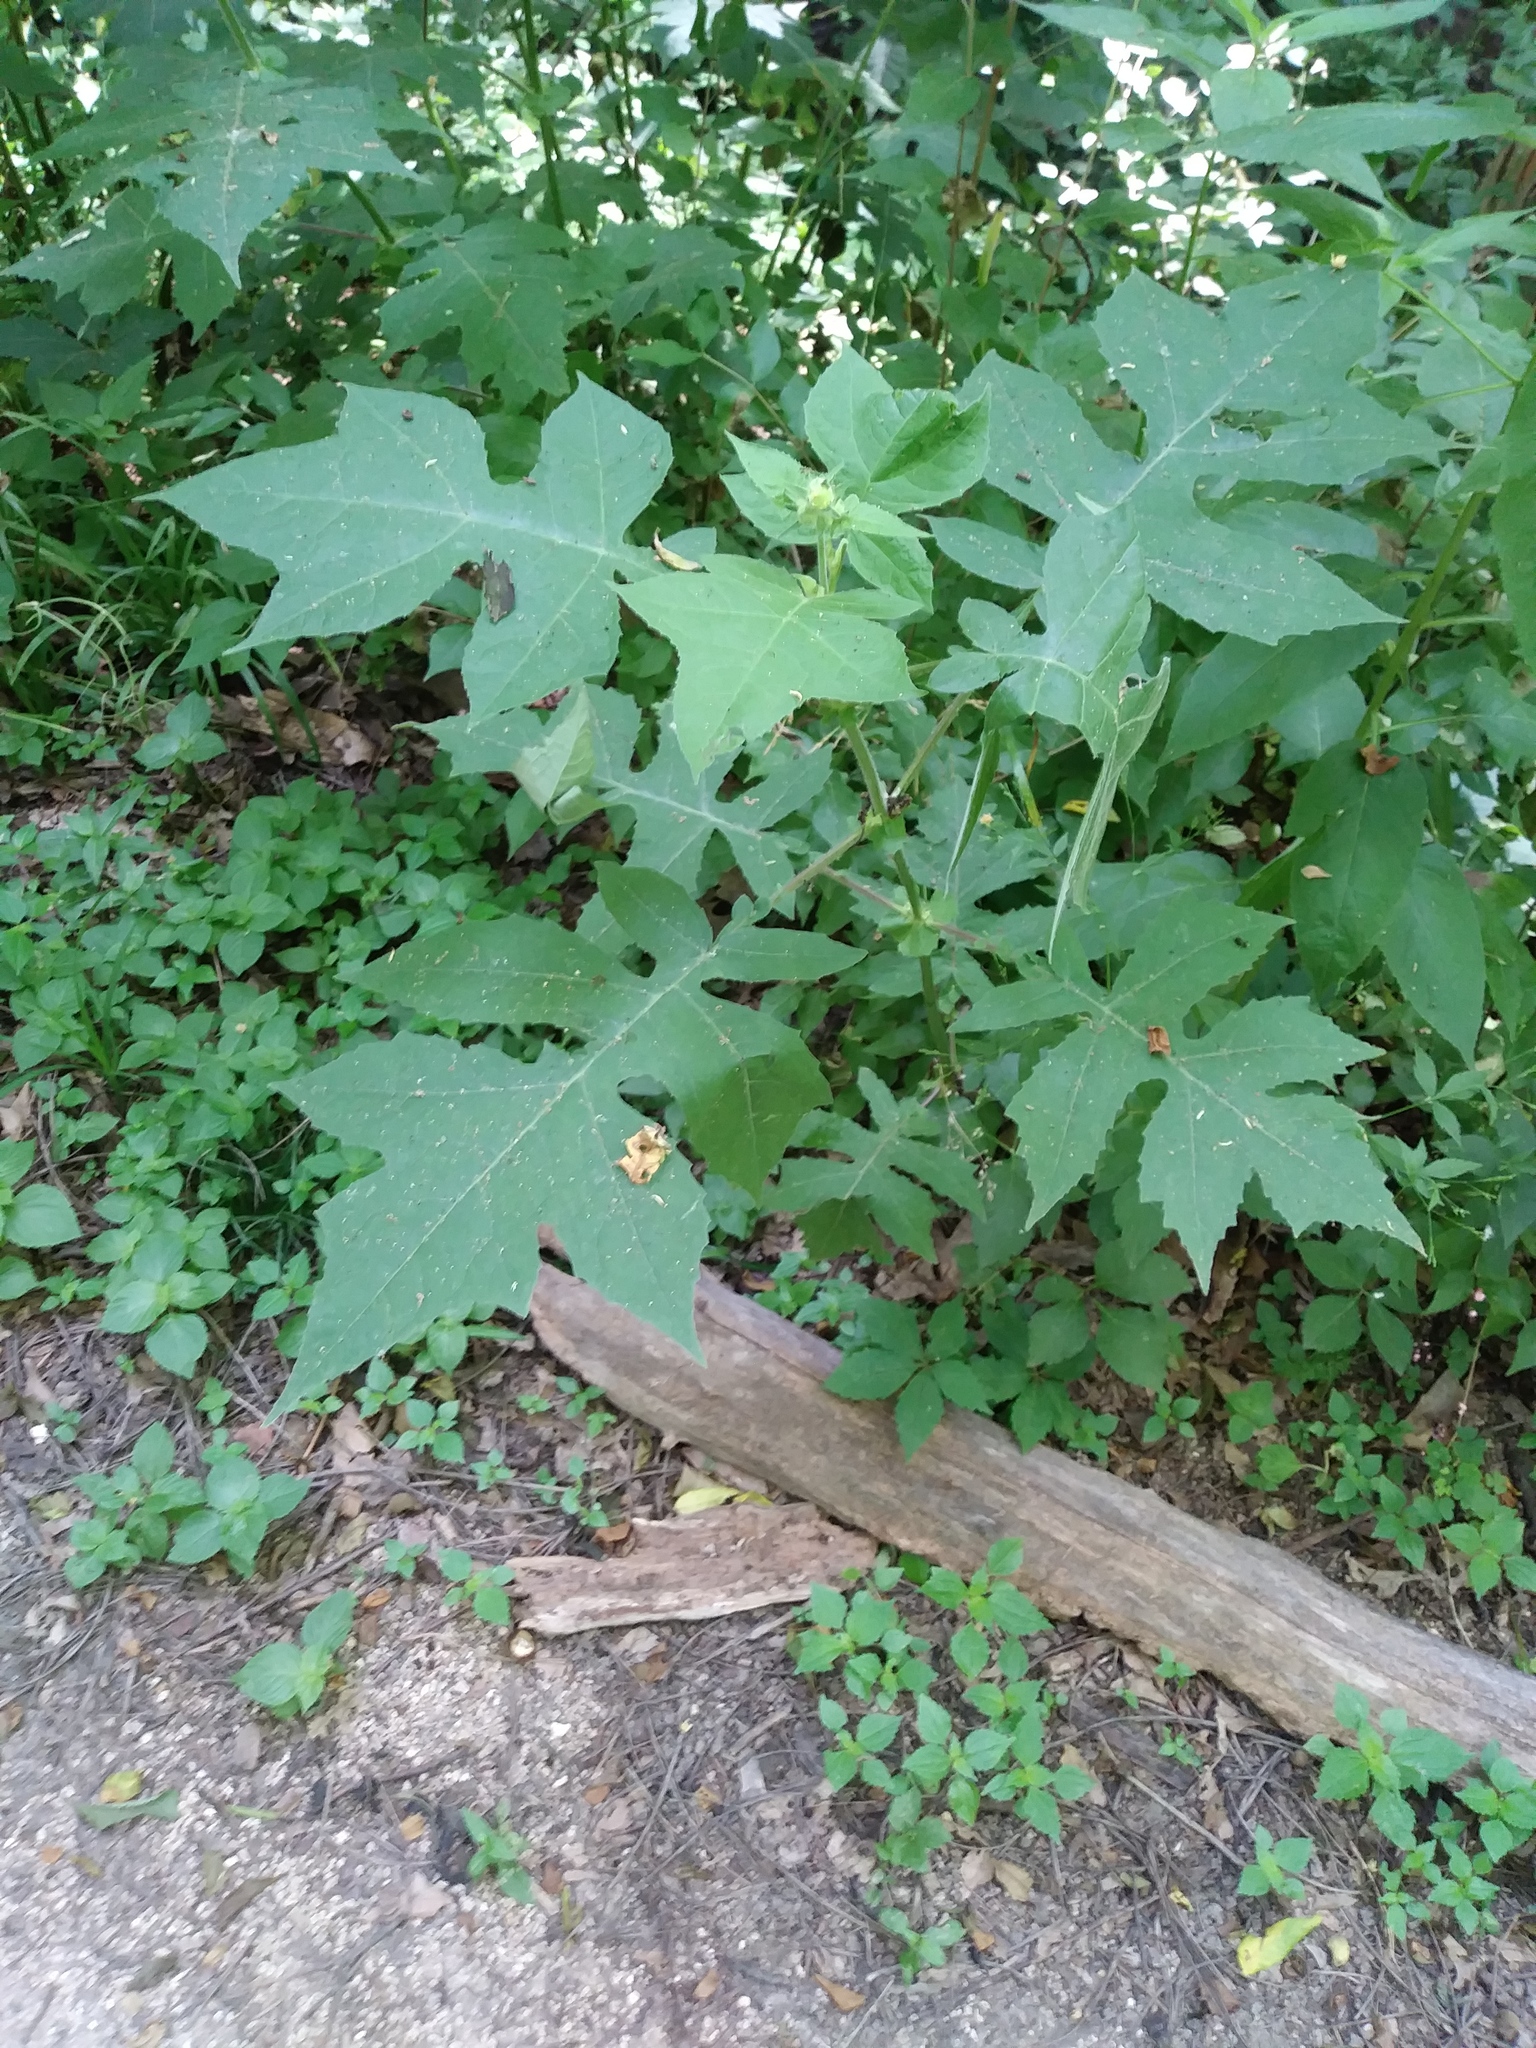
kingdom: Plantae
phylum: Tracheophyta
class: Magnoliopsida
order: Asterales
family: Asteraceae
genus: Polymnia
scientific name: Polymnia canadensis
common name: Pale-flowered leafcup
